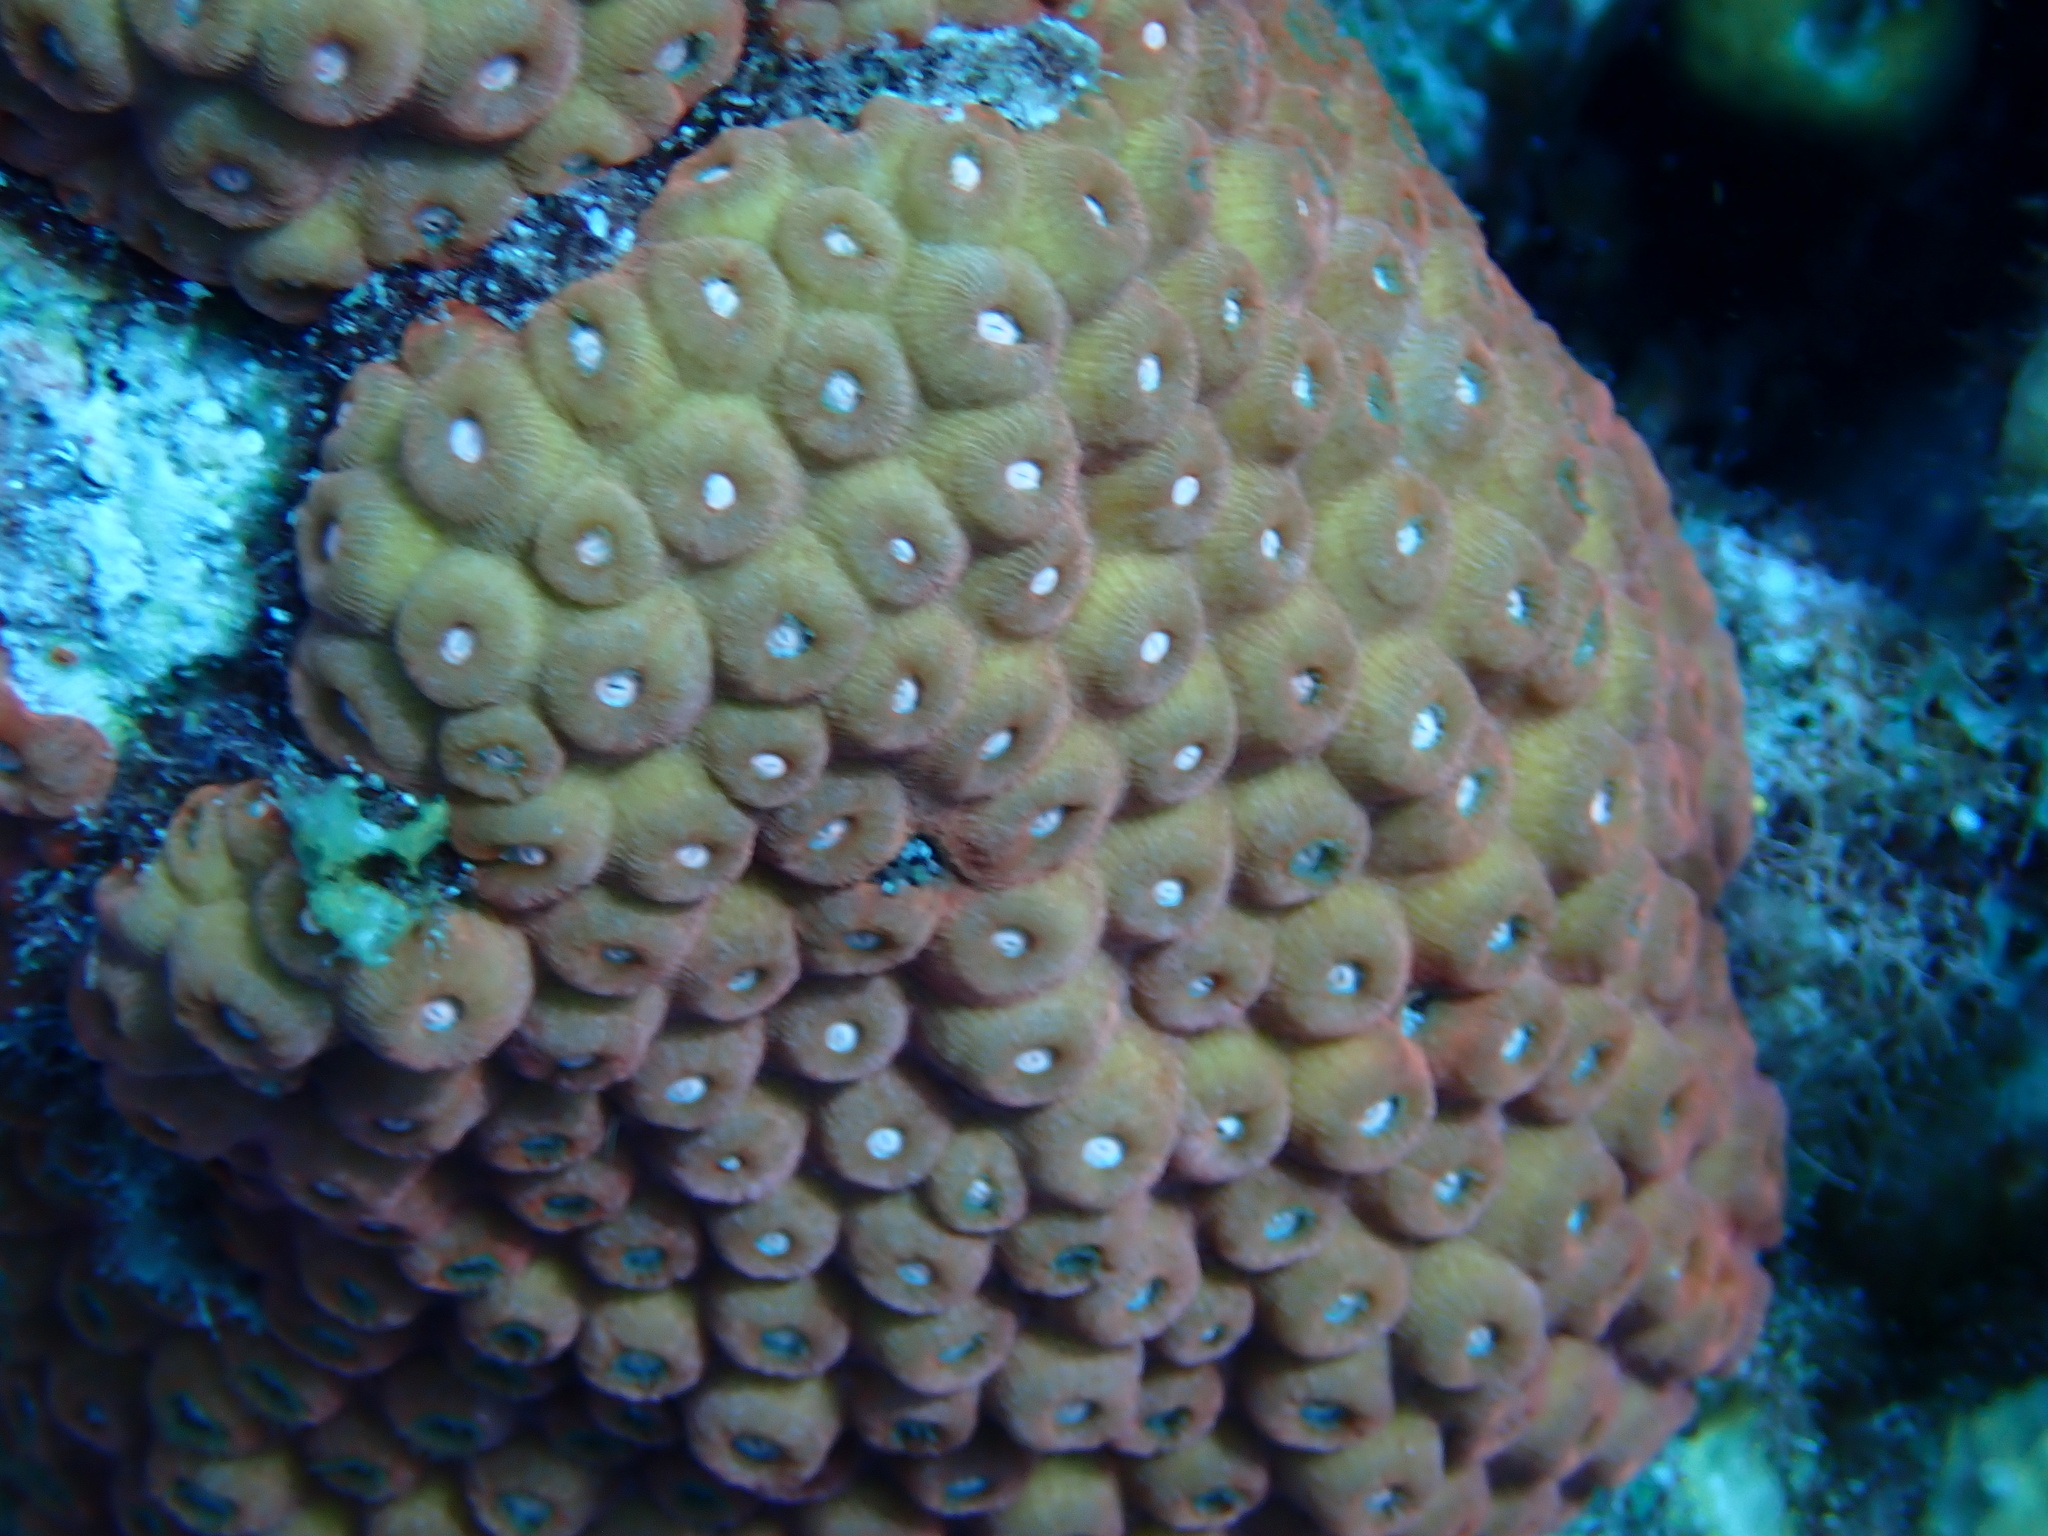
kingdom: Animalia
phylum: Cnidaria
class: Anthozoa
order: Scleractinia
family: Montastraeidae
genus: Montastraea
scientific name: Montastraea cavernosa
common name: Great star coral
